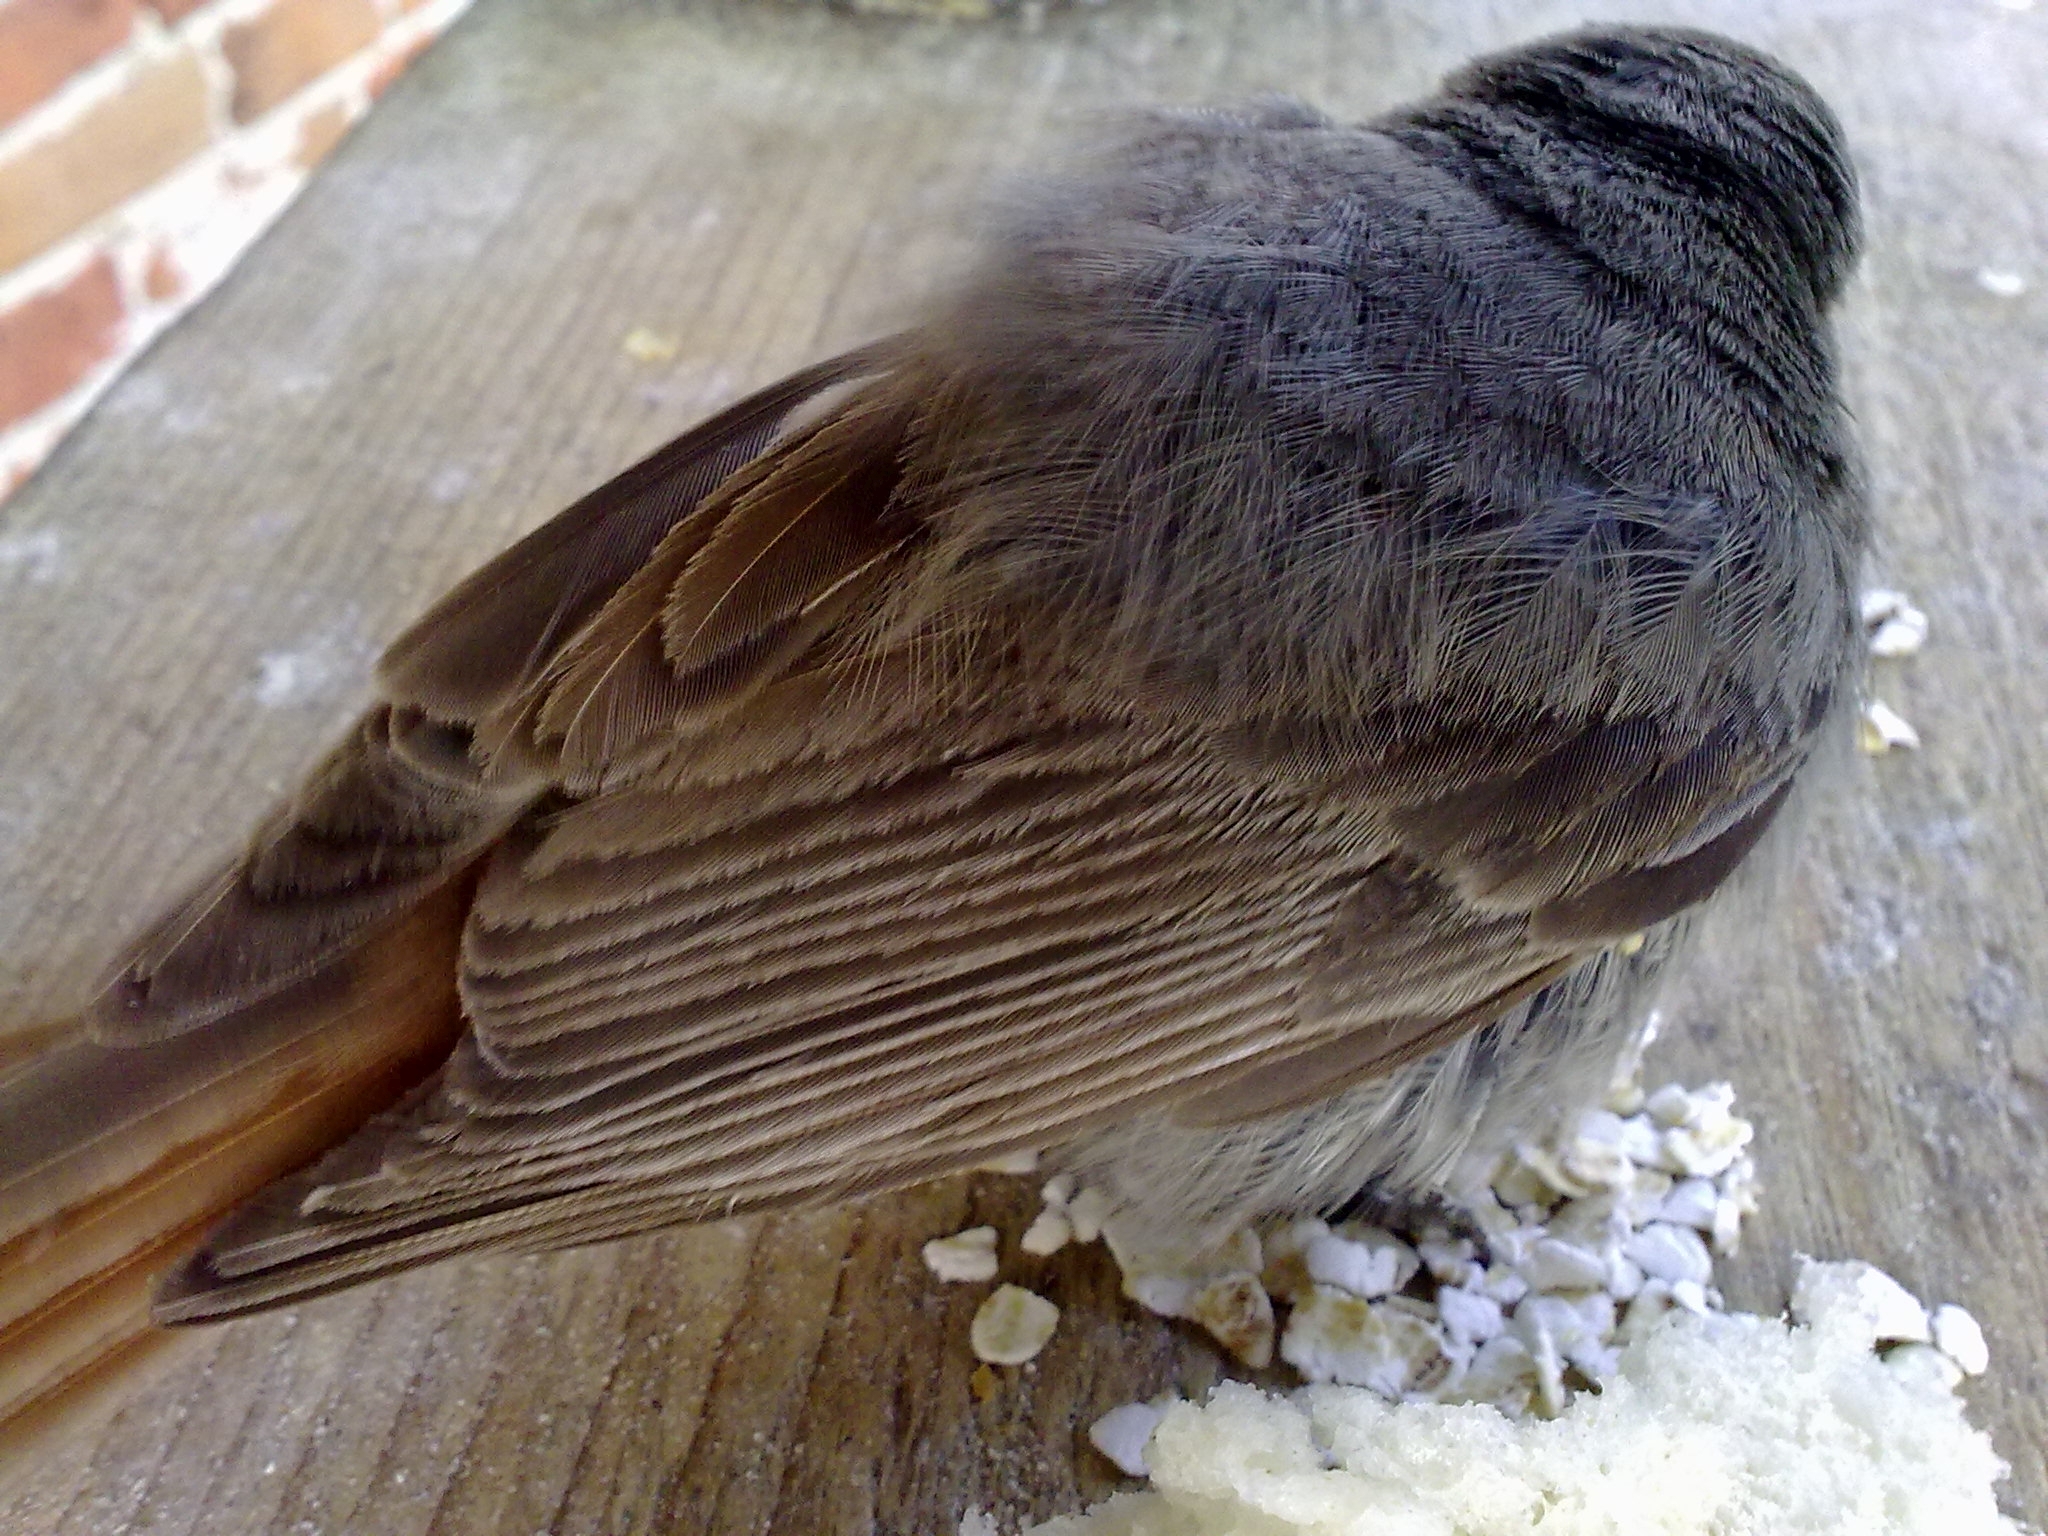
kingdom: Animalia
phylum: Chordata
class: Aves
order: Passeriformes
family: Muscicapidae
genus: Phoenicurus
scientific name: Phoenicurus ochruros
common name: Black redstart
